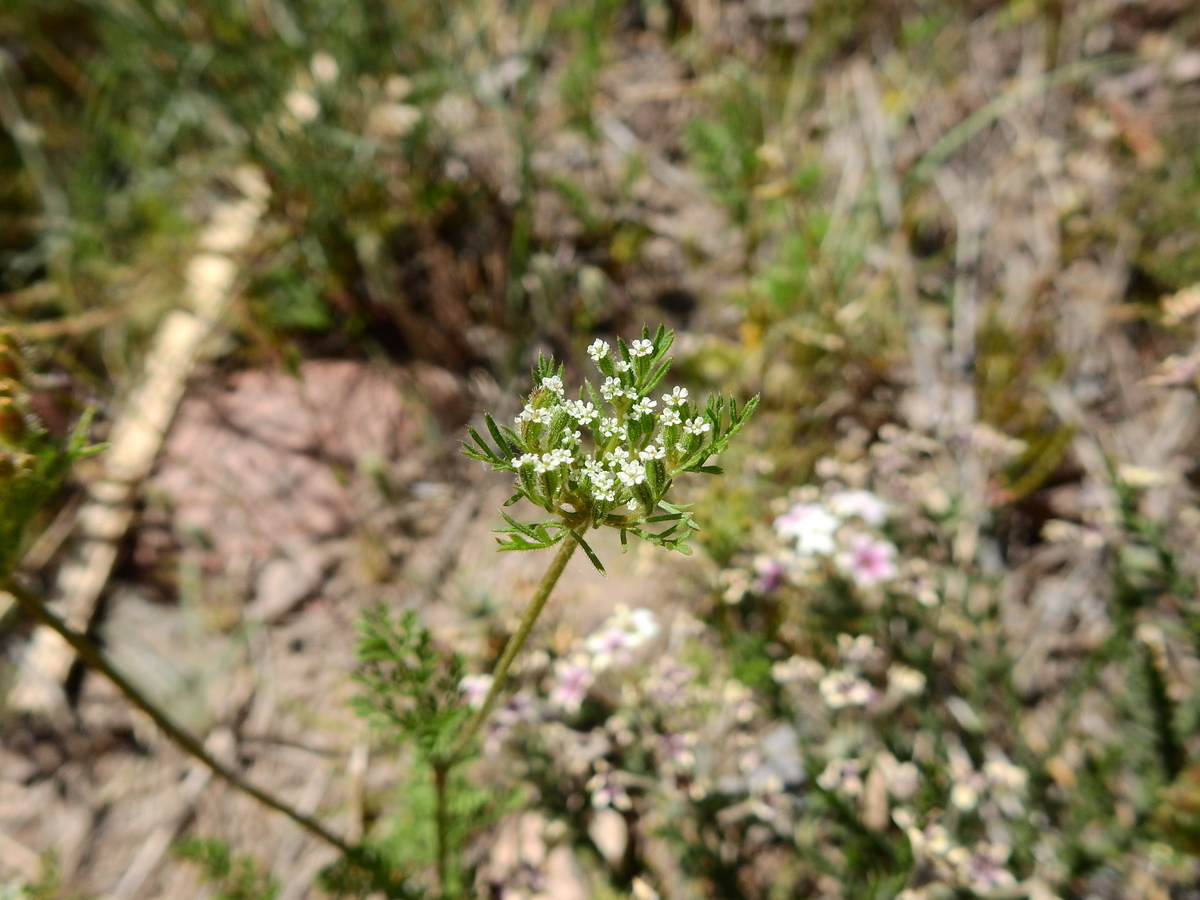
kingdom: Plantae
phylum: Tracheophyta
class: Magnoliopsida
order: Apiales
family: Apiaceae
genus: Daucus
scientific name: Daucus pusillus
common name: Southwest wild carrot
